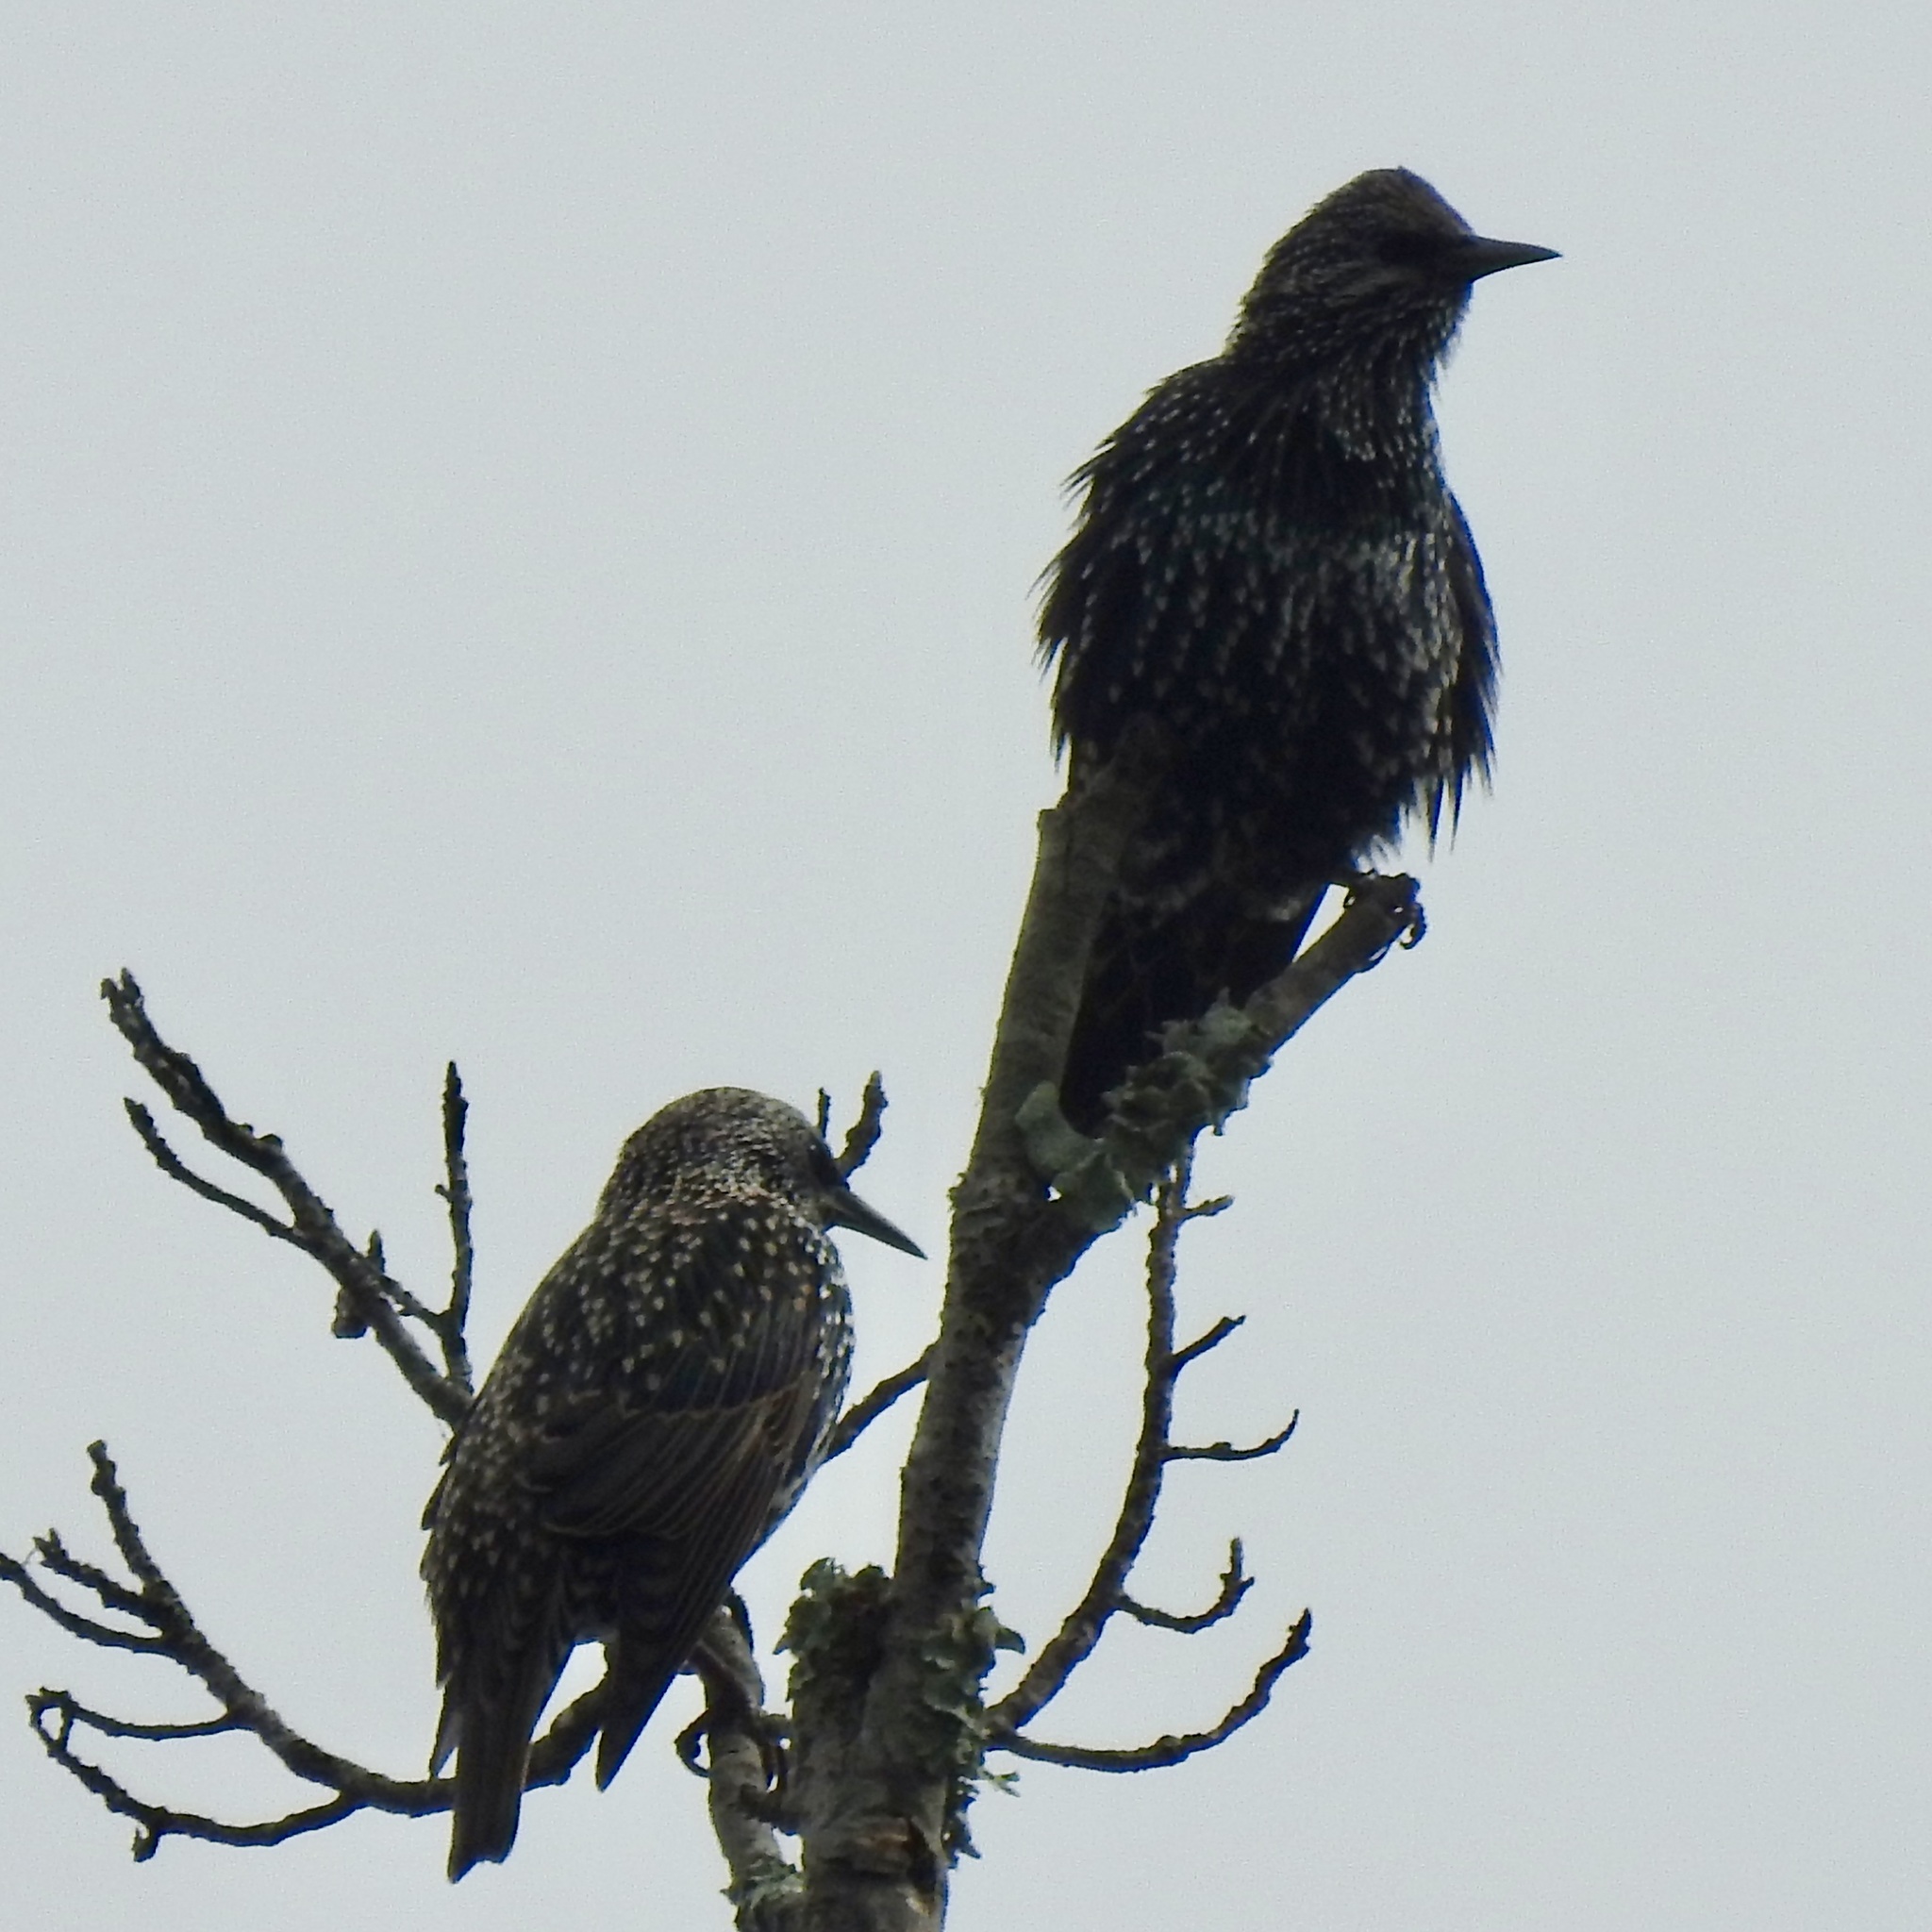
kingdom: Animalia
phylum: Chordata
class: Aves
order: Passeriformes
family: Sturnidae
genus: Sturnus
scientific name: Sturnus vulgaris
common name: Common starling
